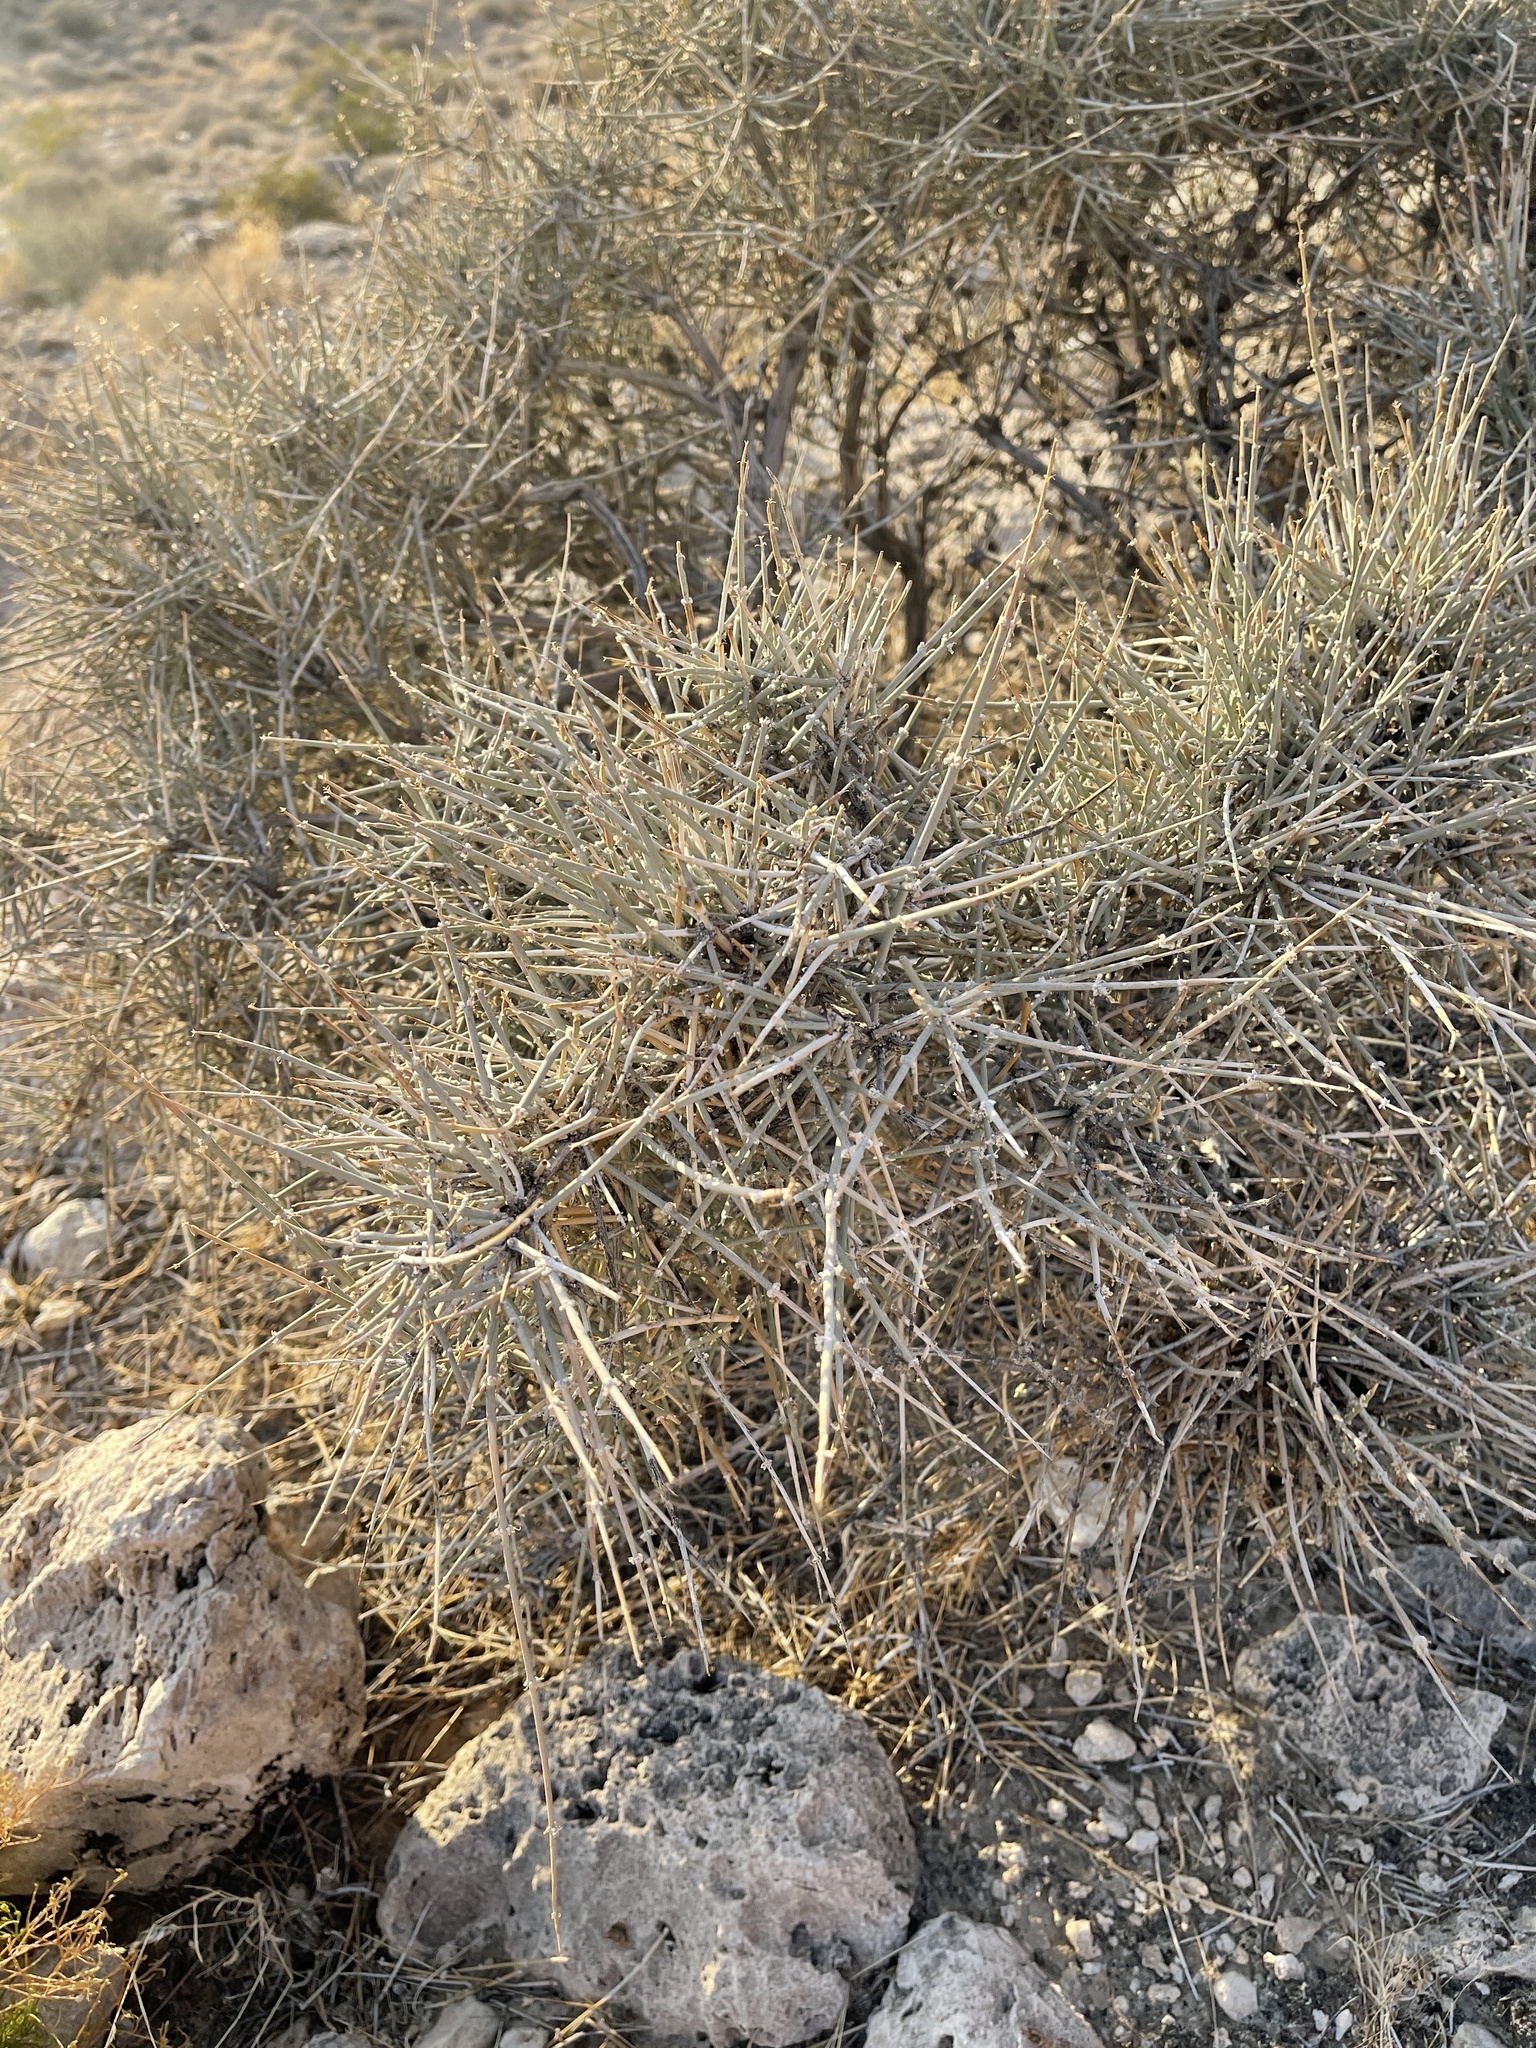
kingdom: Plantae
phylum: Tracheophyta
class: Gnetopsida
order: Ephedrales
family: Ephedraceae
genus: Ephedra
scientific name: Ephedra nevadensis
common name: Gray ephedra
